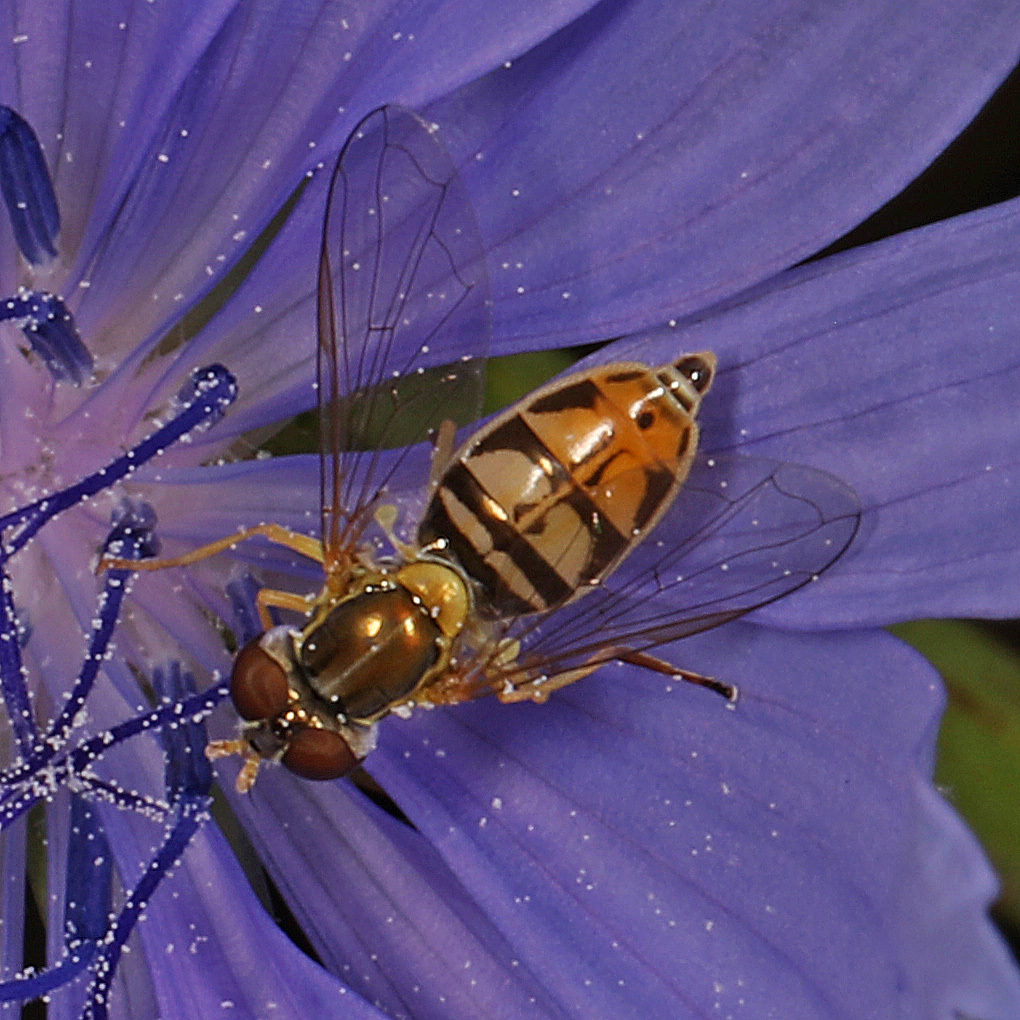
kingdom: Animalia
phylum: Arthropoda
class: Insecta
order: Diptera
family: Syrphidae
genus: Toxomerus
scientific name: Toxomerus marginatus
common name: Syrphid fly
